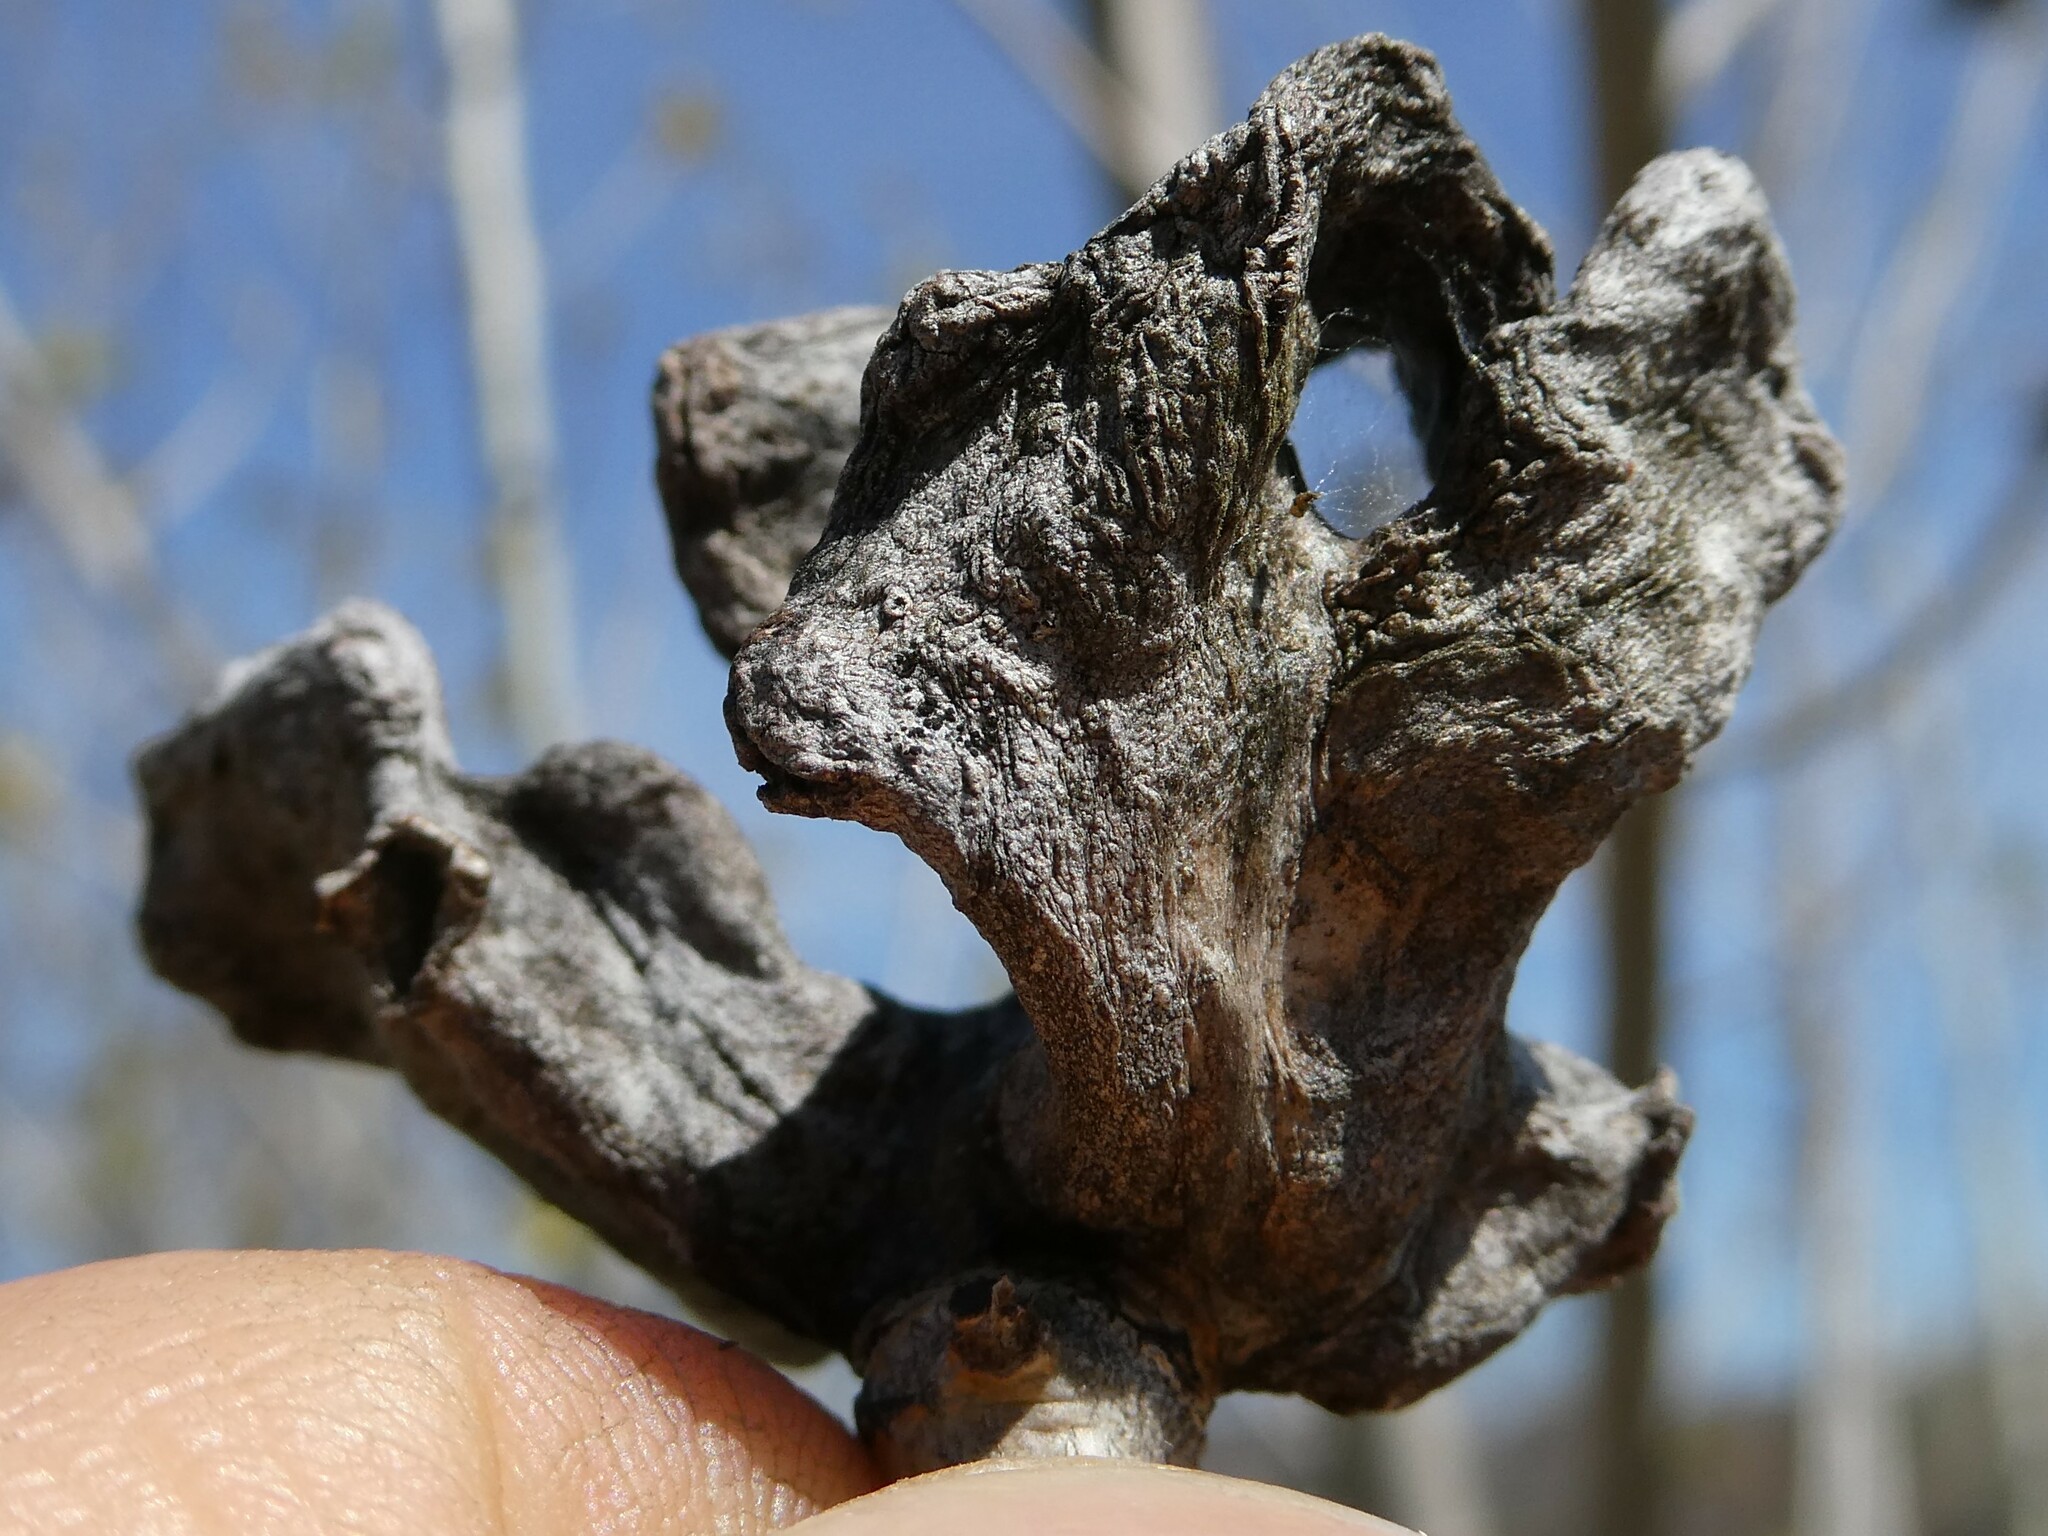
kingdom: Animalia
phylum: Arthropoda
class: Insecta
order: Hemiptera
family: Aphididae
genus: Mordwilkoja
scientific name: Mordwilkoja vagabunda
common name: Poplar vagabond aphid
